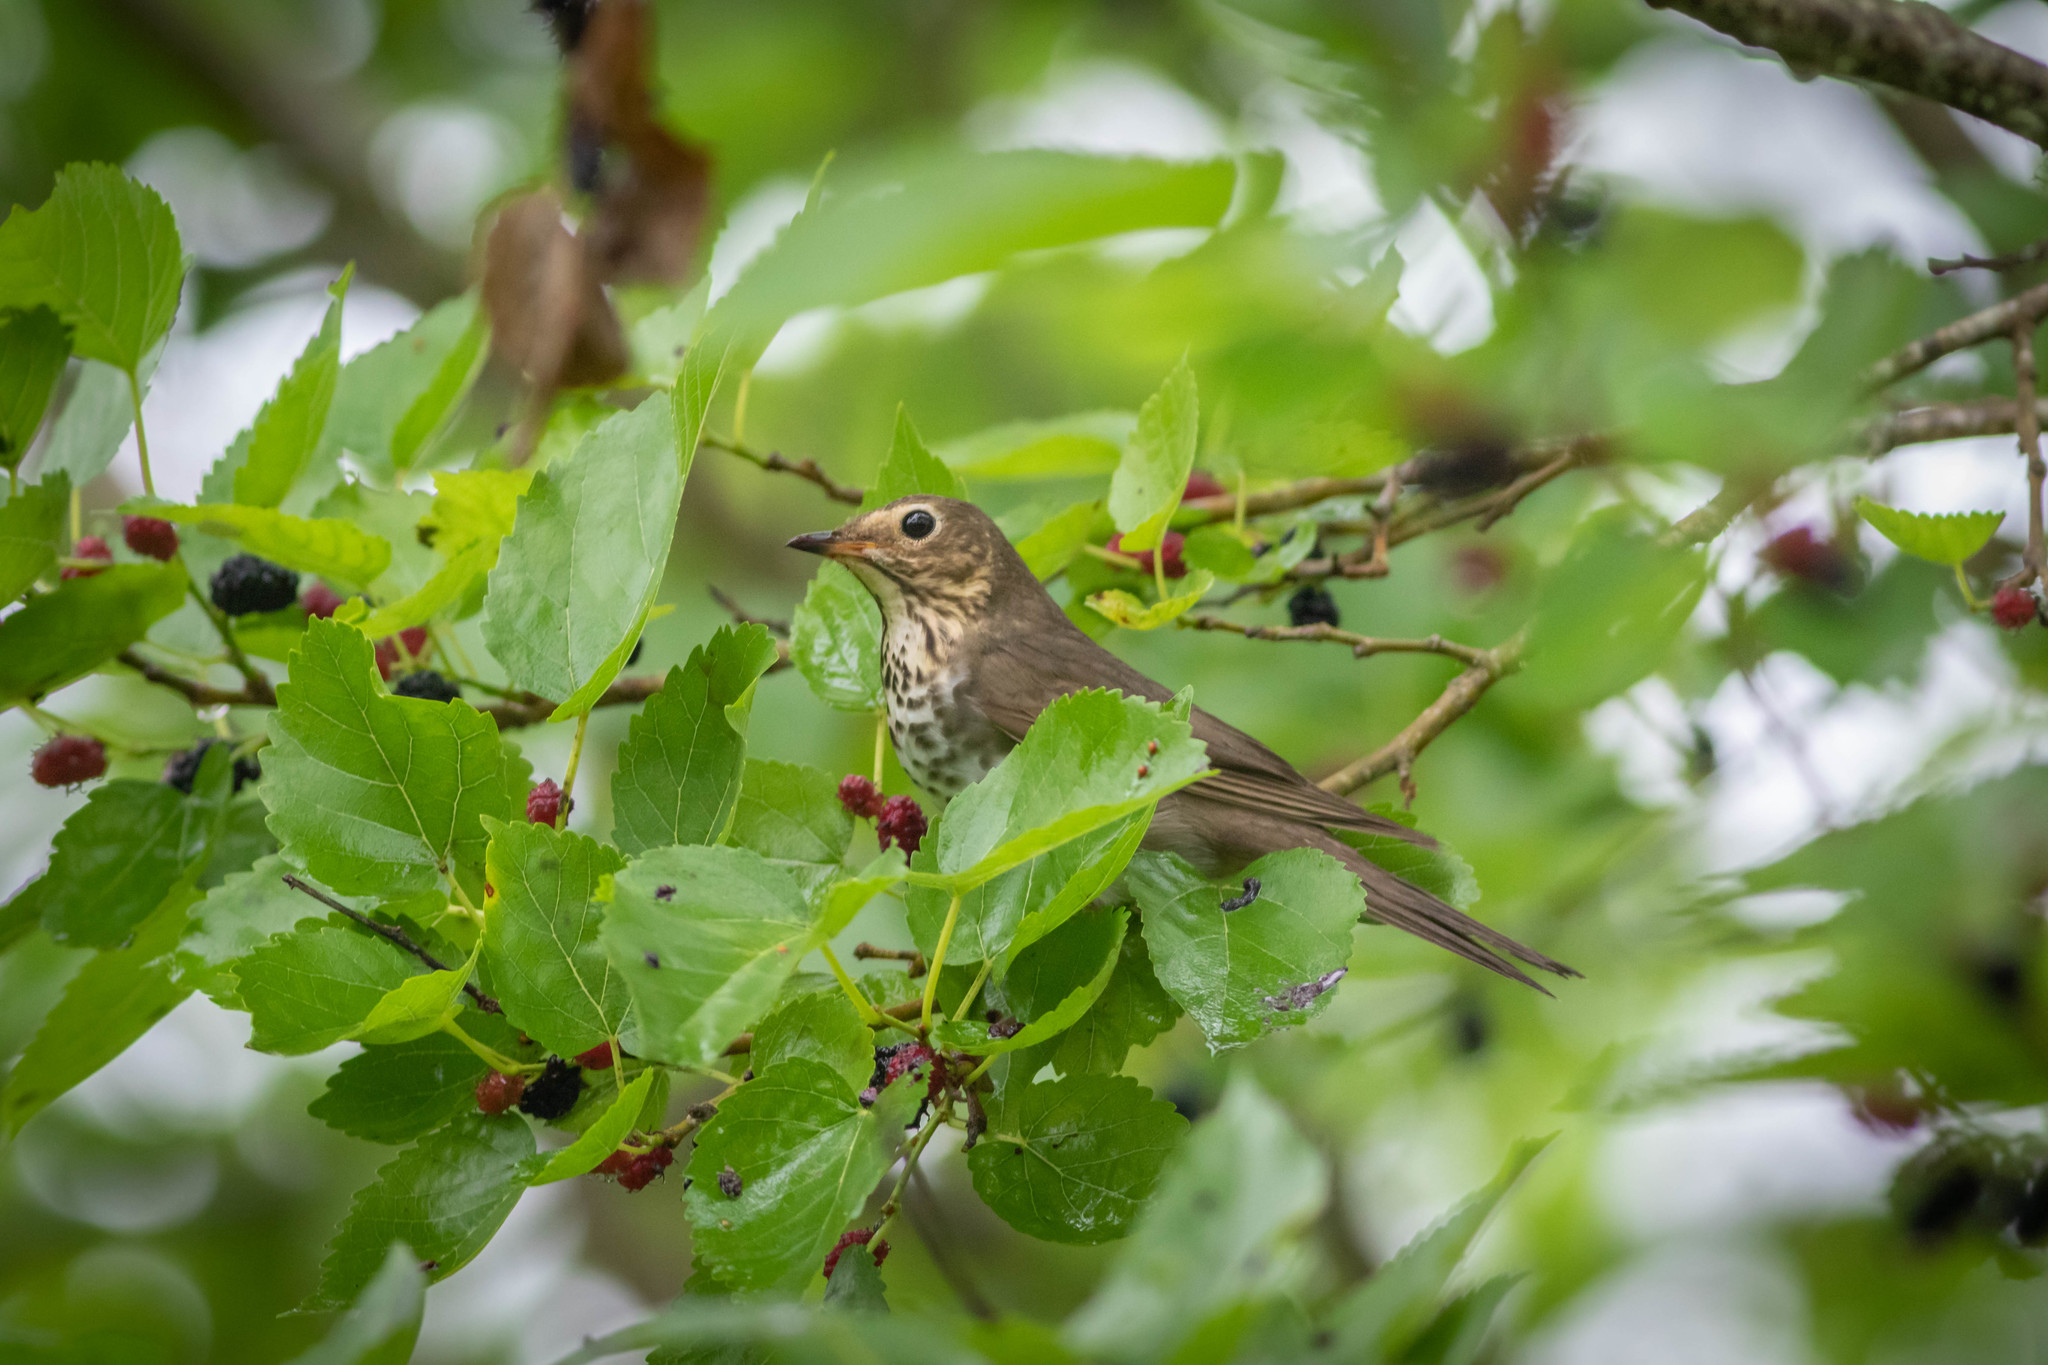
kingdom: Animalia
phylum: Chordata
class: Aves
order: Passeriformes
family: Turdidae
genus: Catharus
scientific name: Catharus ustulatus
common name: Swainson's thrush
